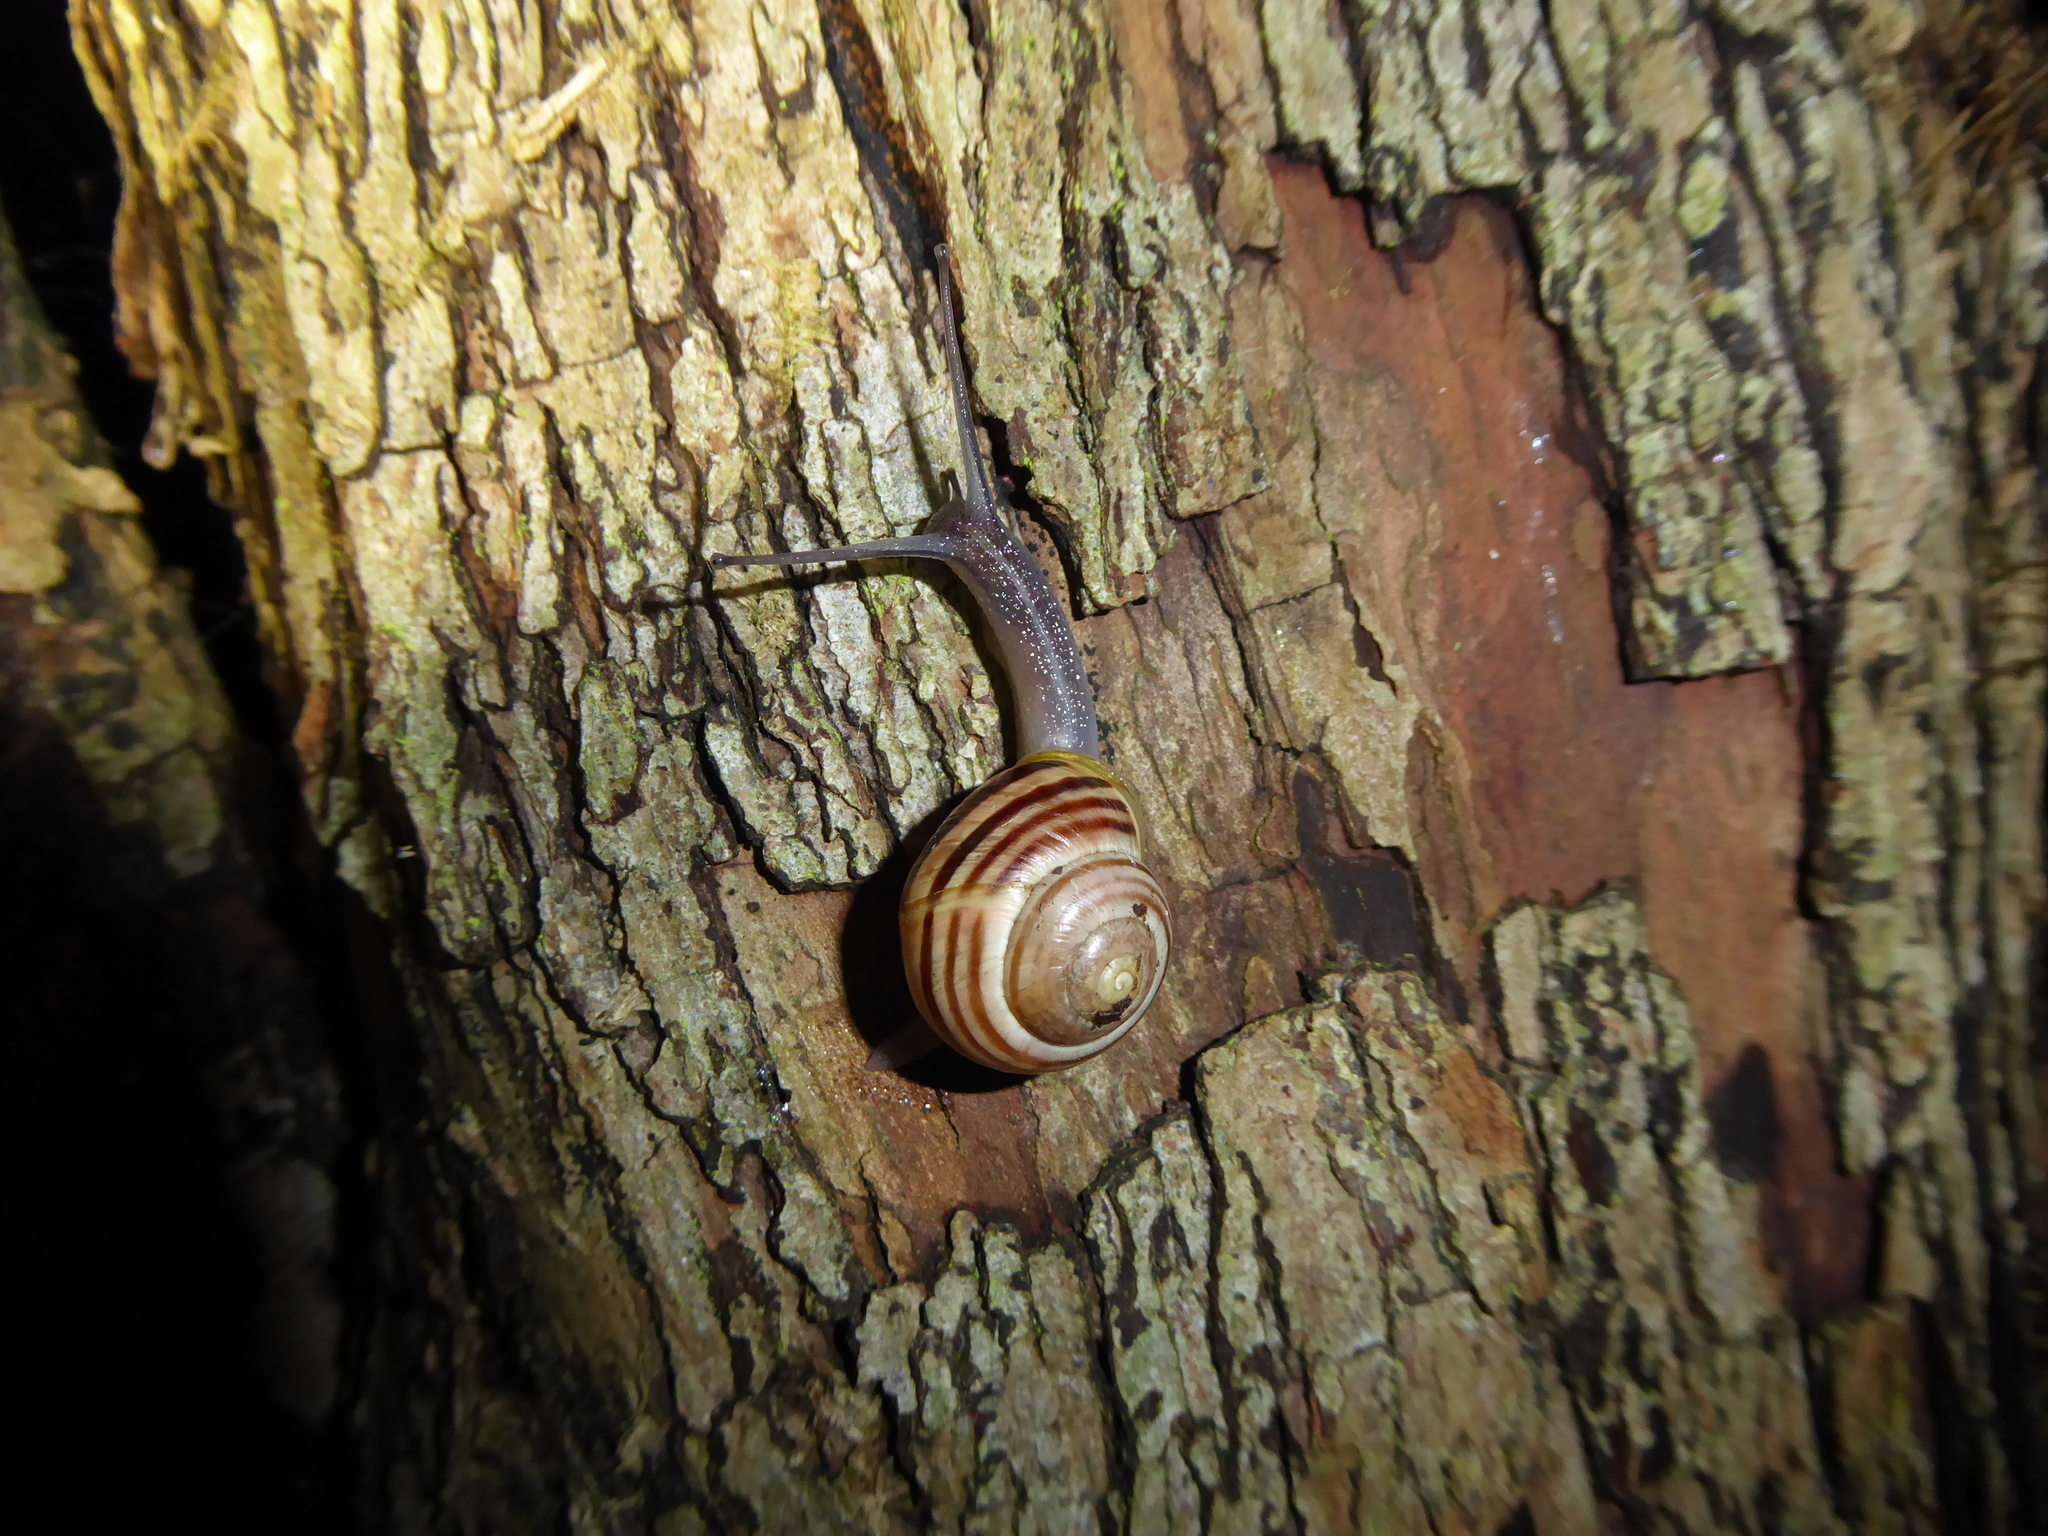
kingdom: Animalia
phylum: Mollusca
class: Gastropoda
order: Stylommatophora
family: Helicidae
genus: Cepaea
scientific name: Cepaea hortensis
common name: White-lip gardensnail
